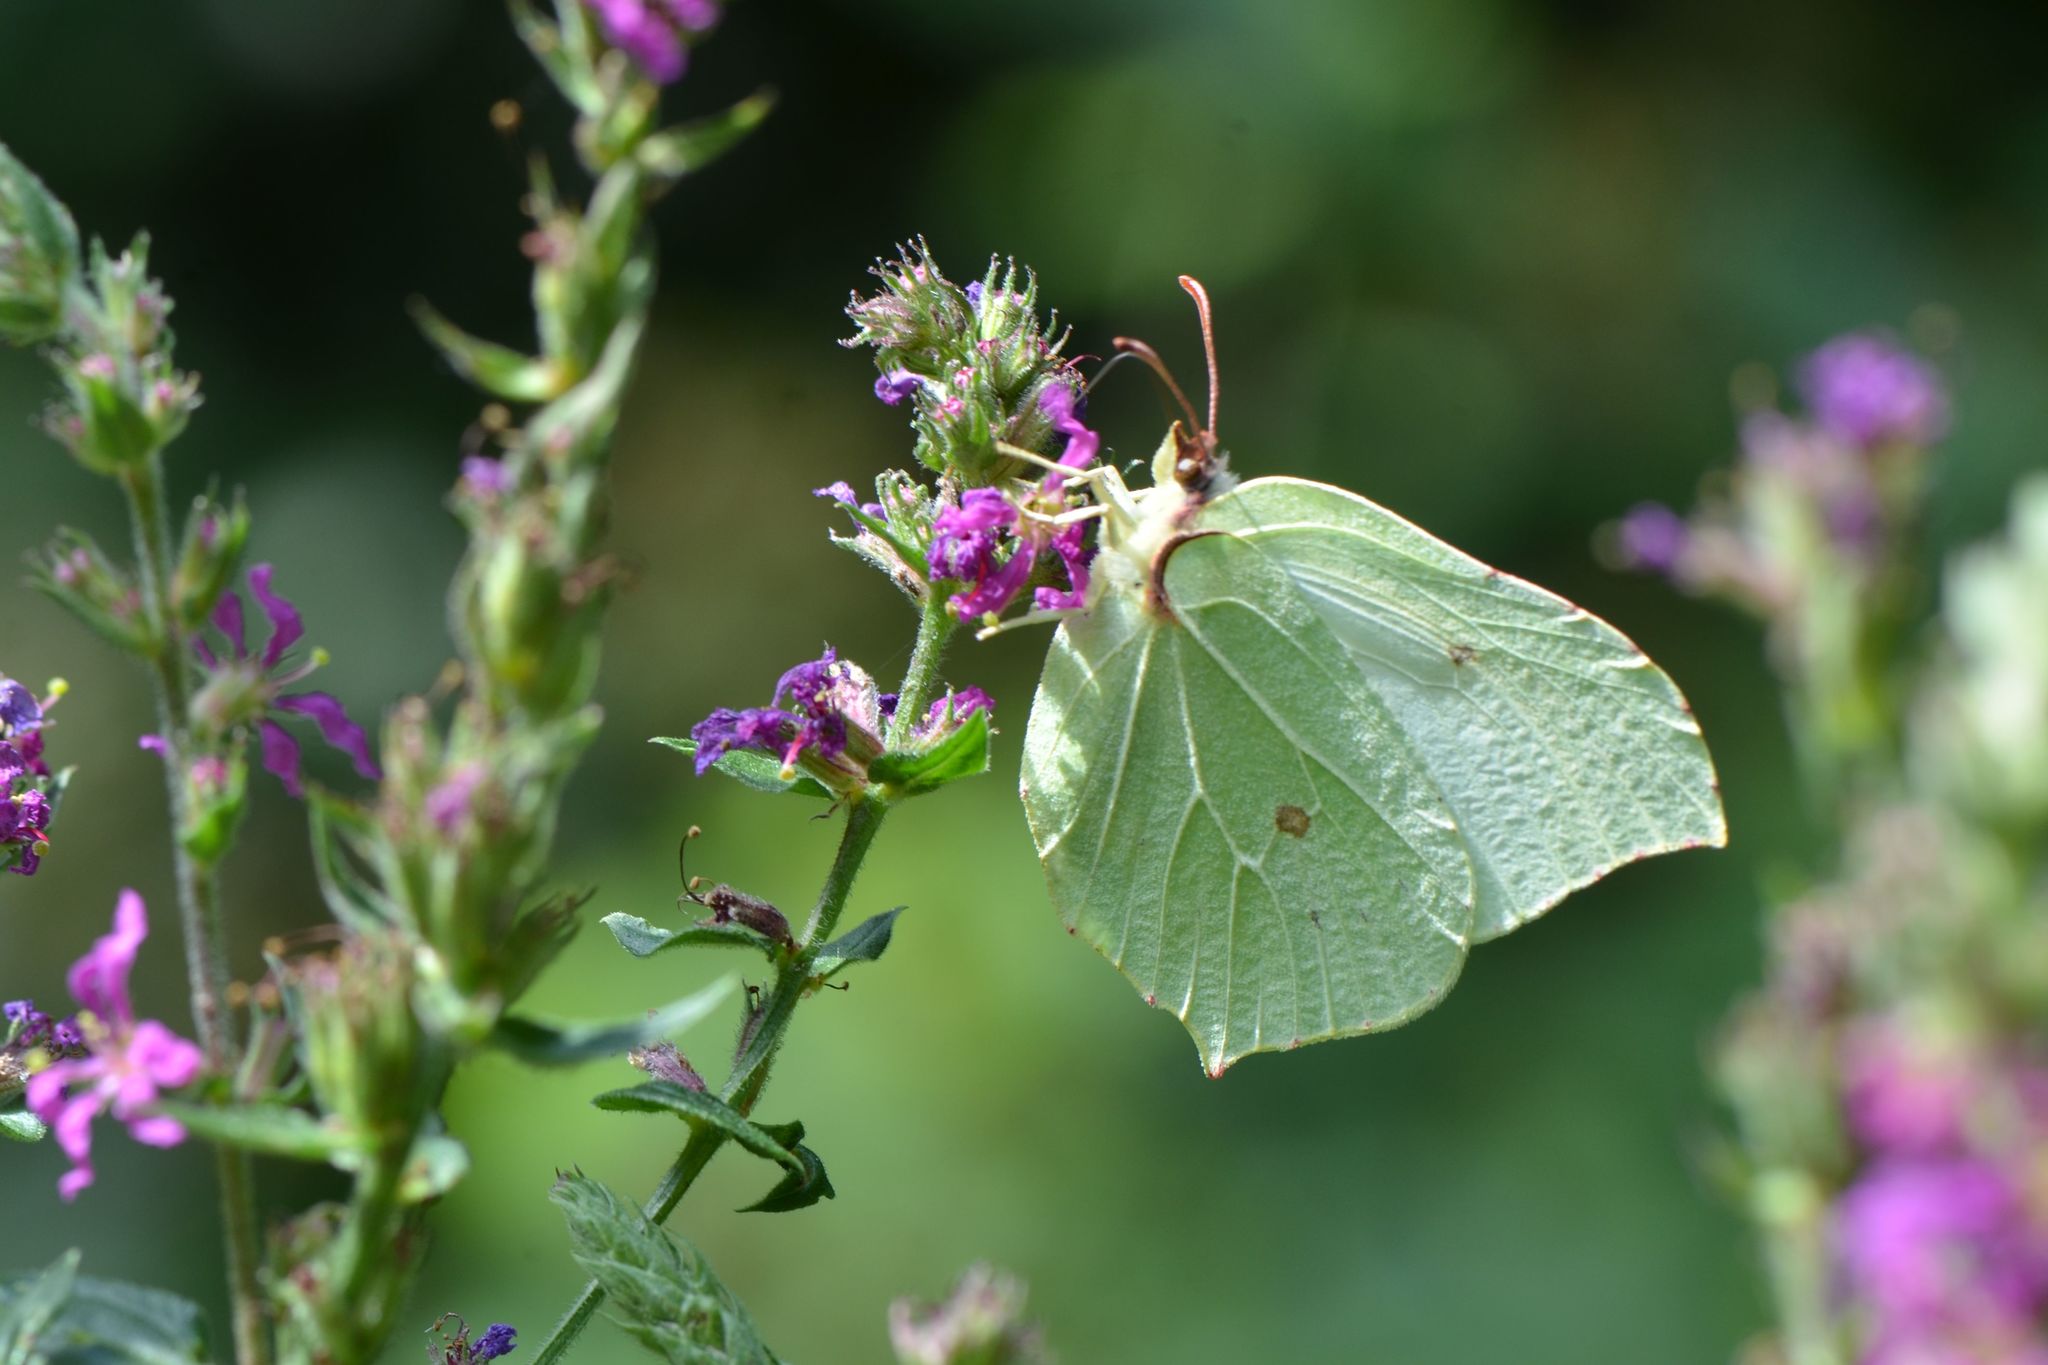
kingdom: Animalia
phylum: Arthropoda
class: Insecta
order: Lepidoptera
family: Pieridae
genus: Gonepteryx
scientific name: Gonepteryx rhamni
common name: Brimstone
